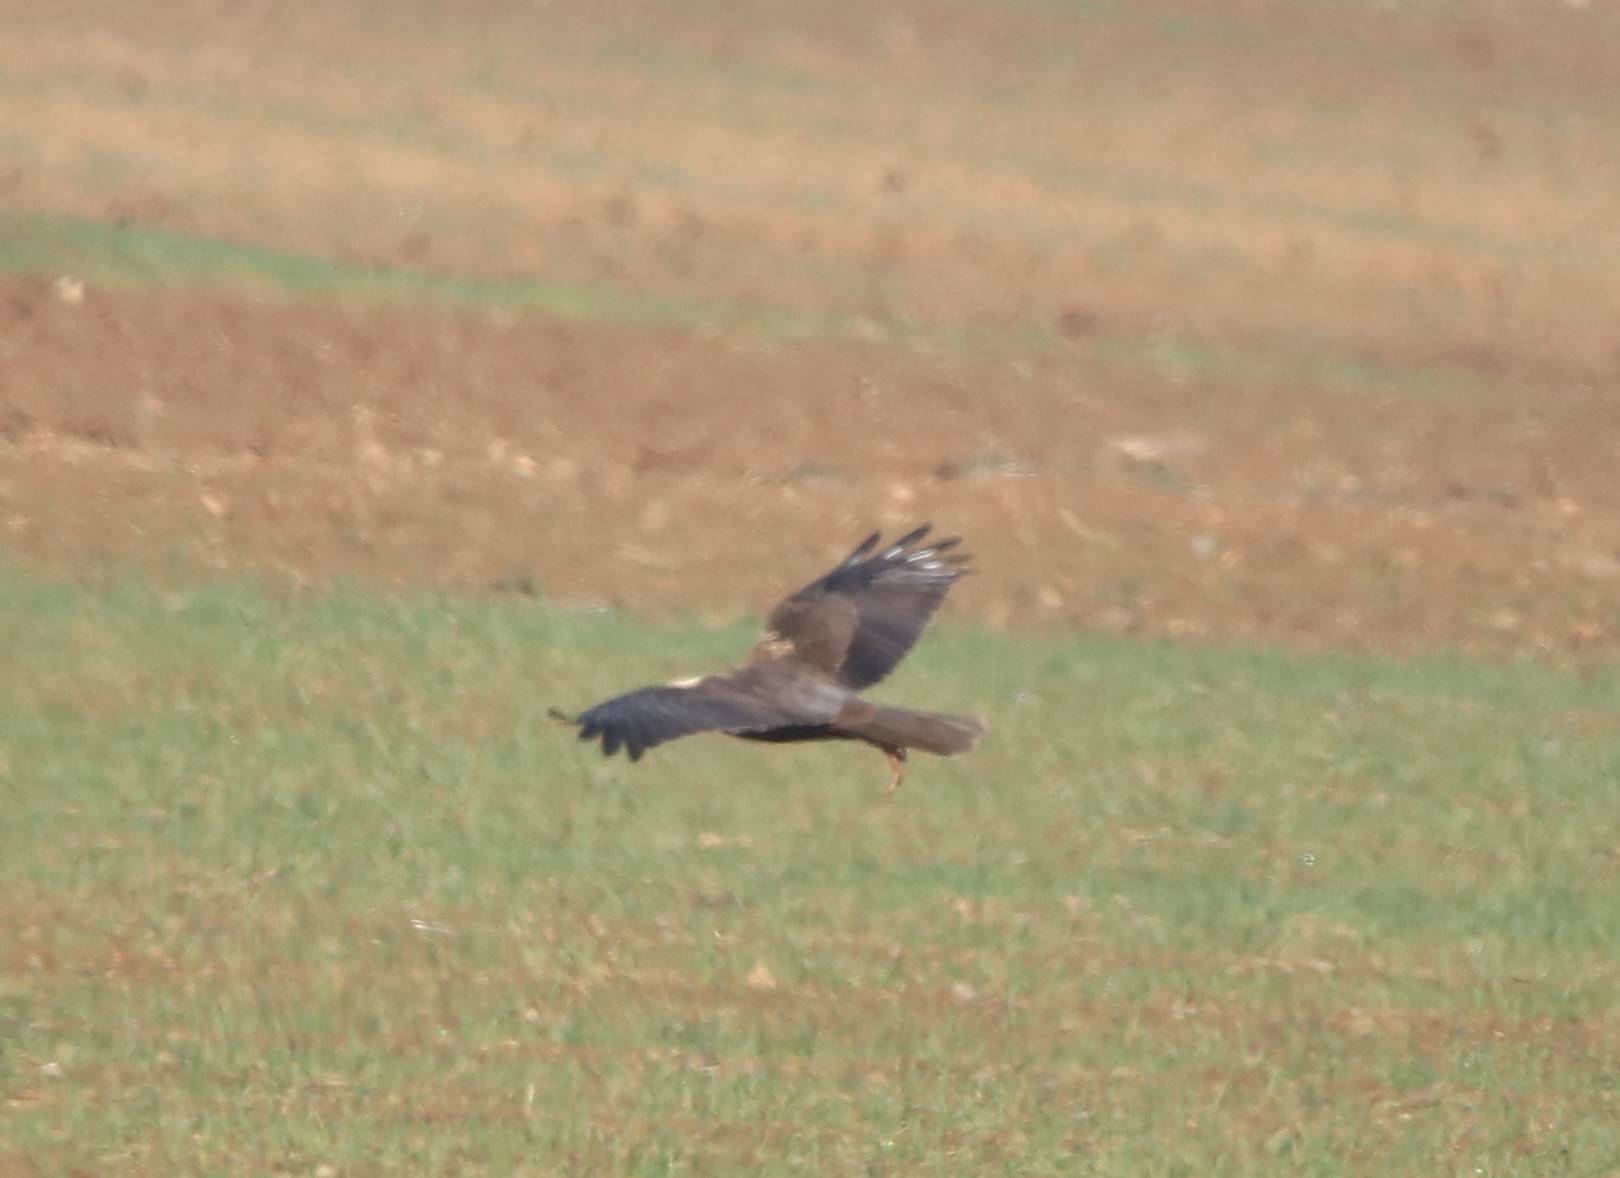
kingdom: Animalia
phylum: Chordata
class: Aves
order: Accipitriformes
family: Accipitridae
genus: Circus
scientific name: Circus aeruginosus
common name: Western marsh harrier
